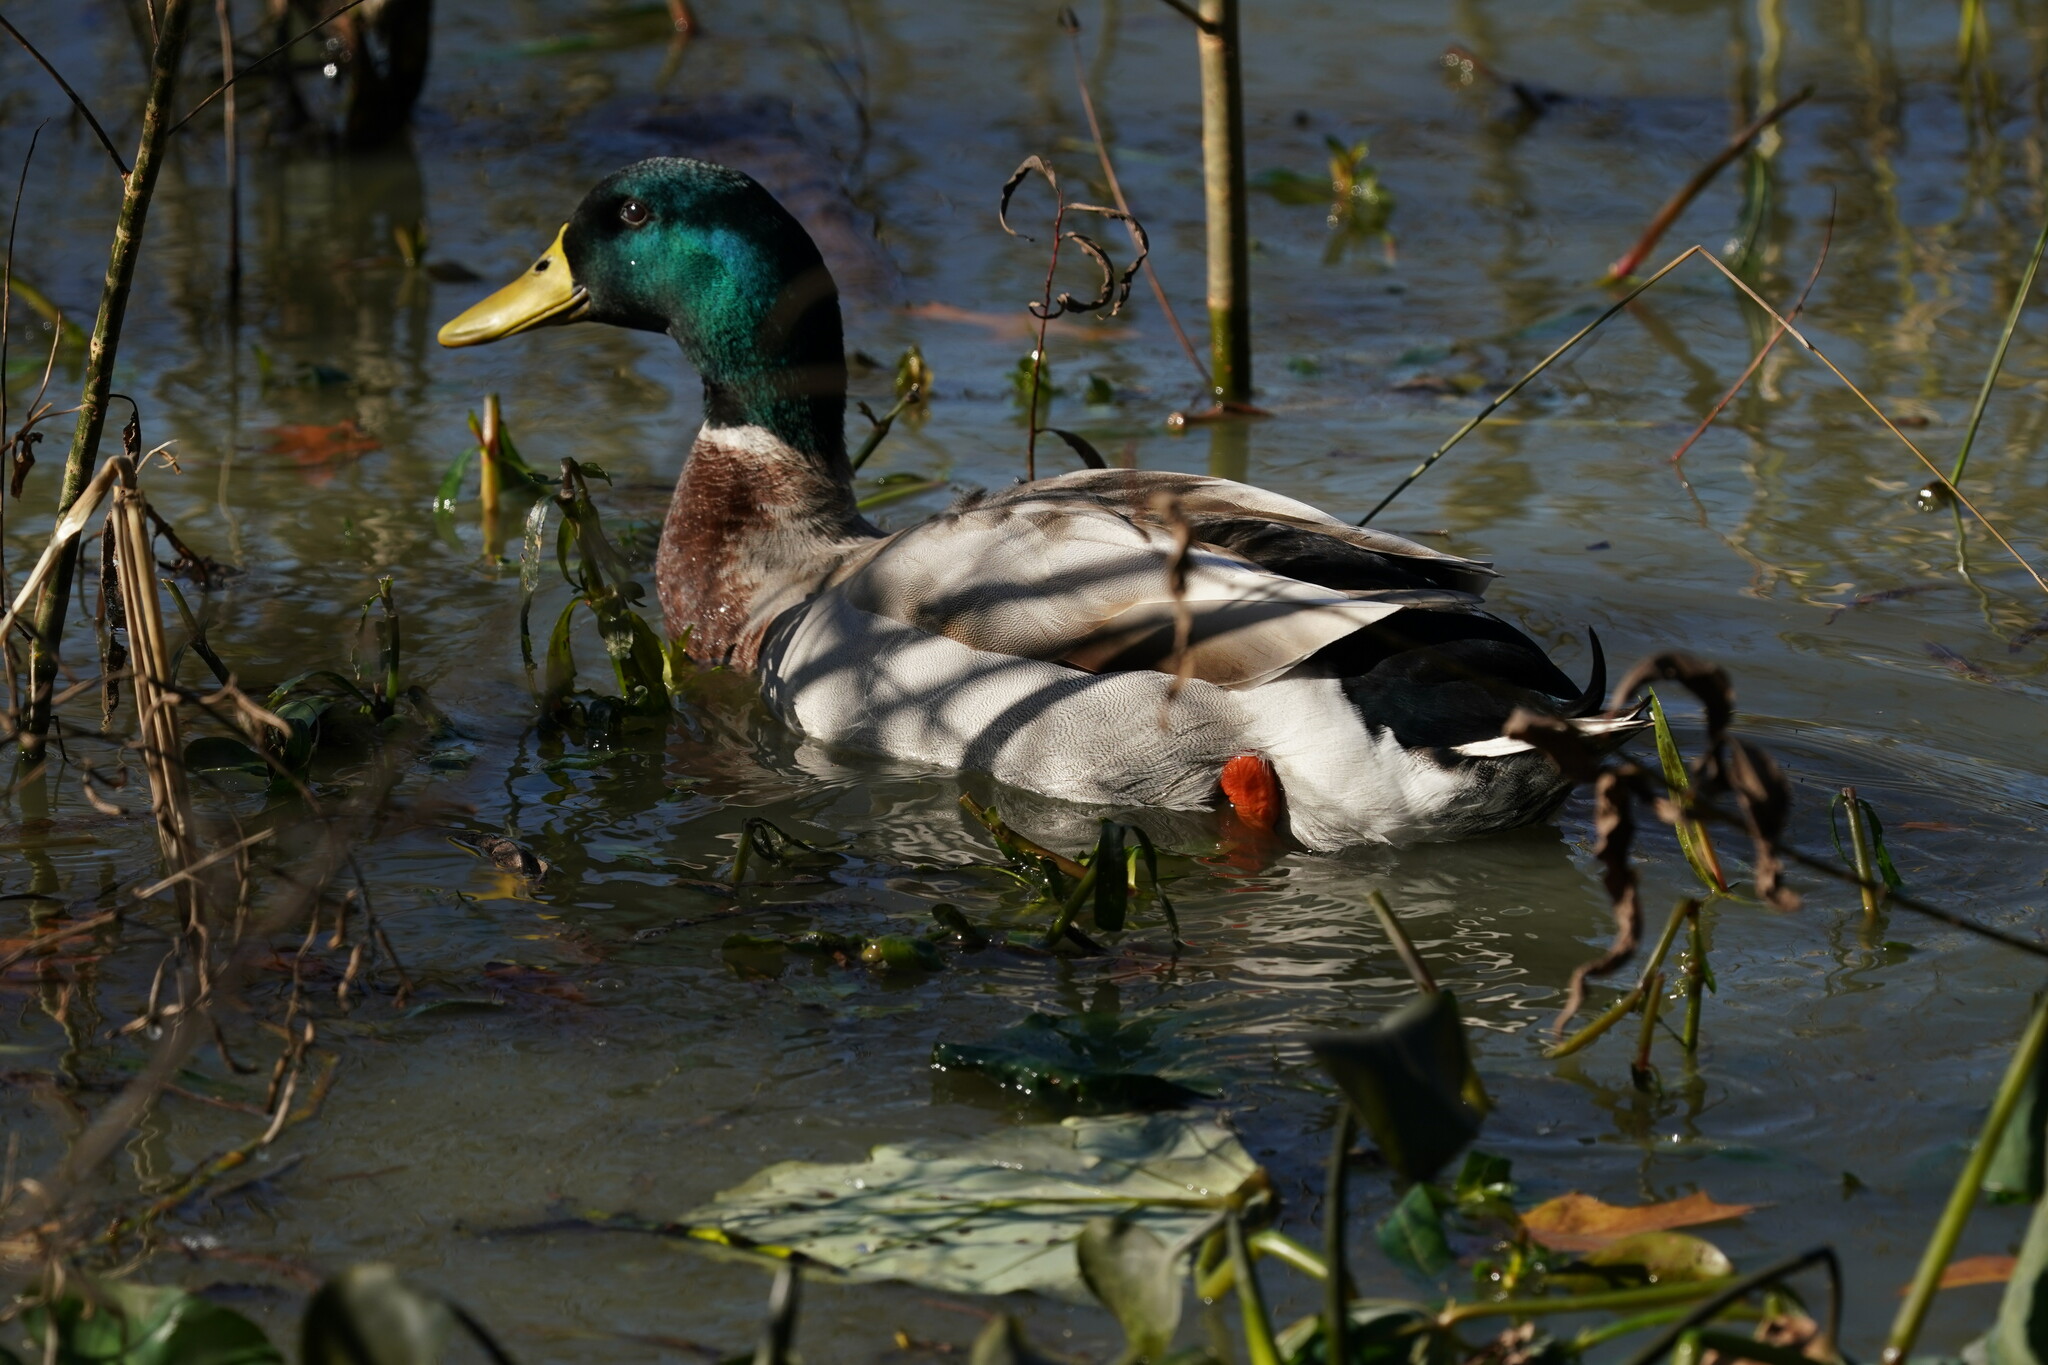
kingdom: Animalia
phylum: Chordata
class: Aves
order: Anseriformes
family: Anatidae
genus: Anas
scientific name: Anas platyrhynchos
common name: Mallard
